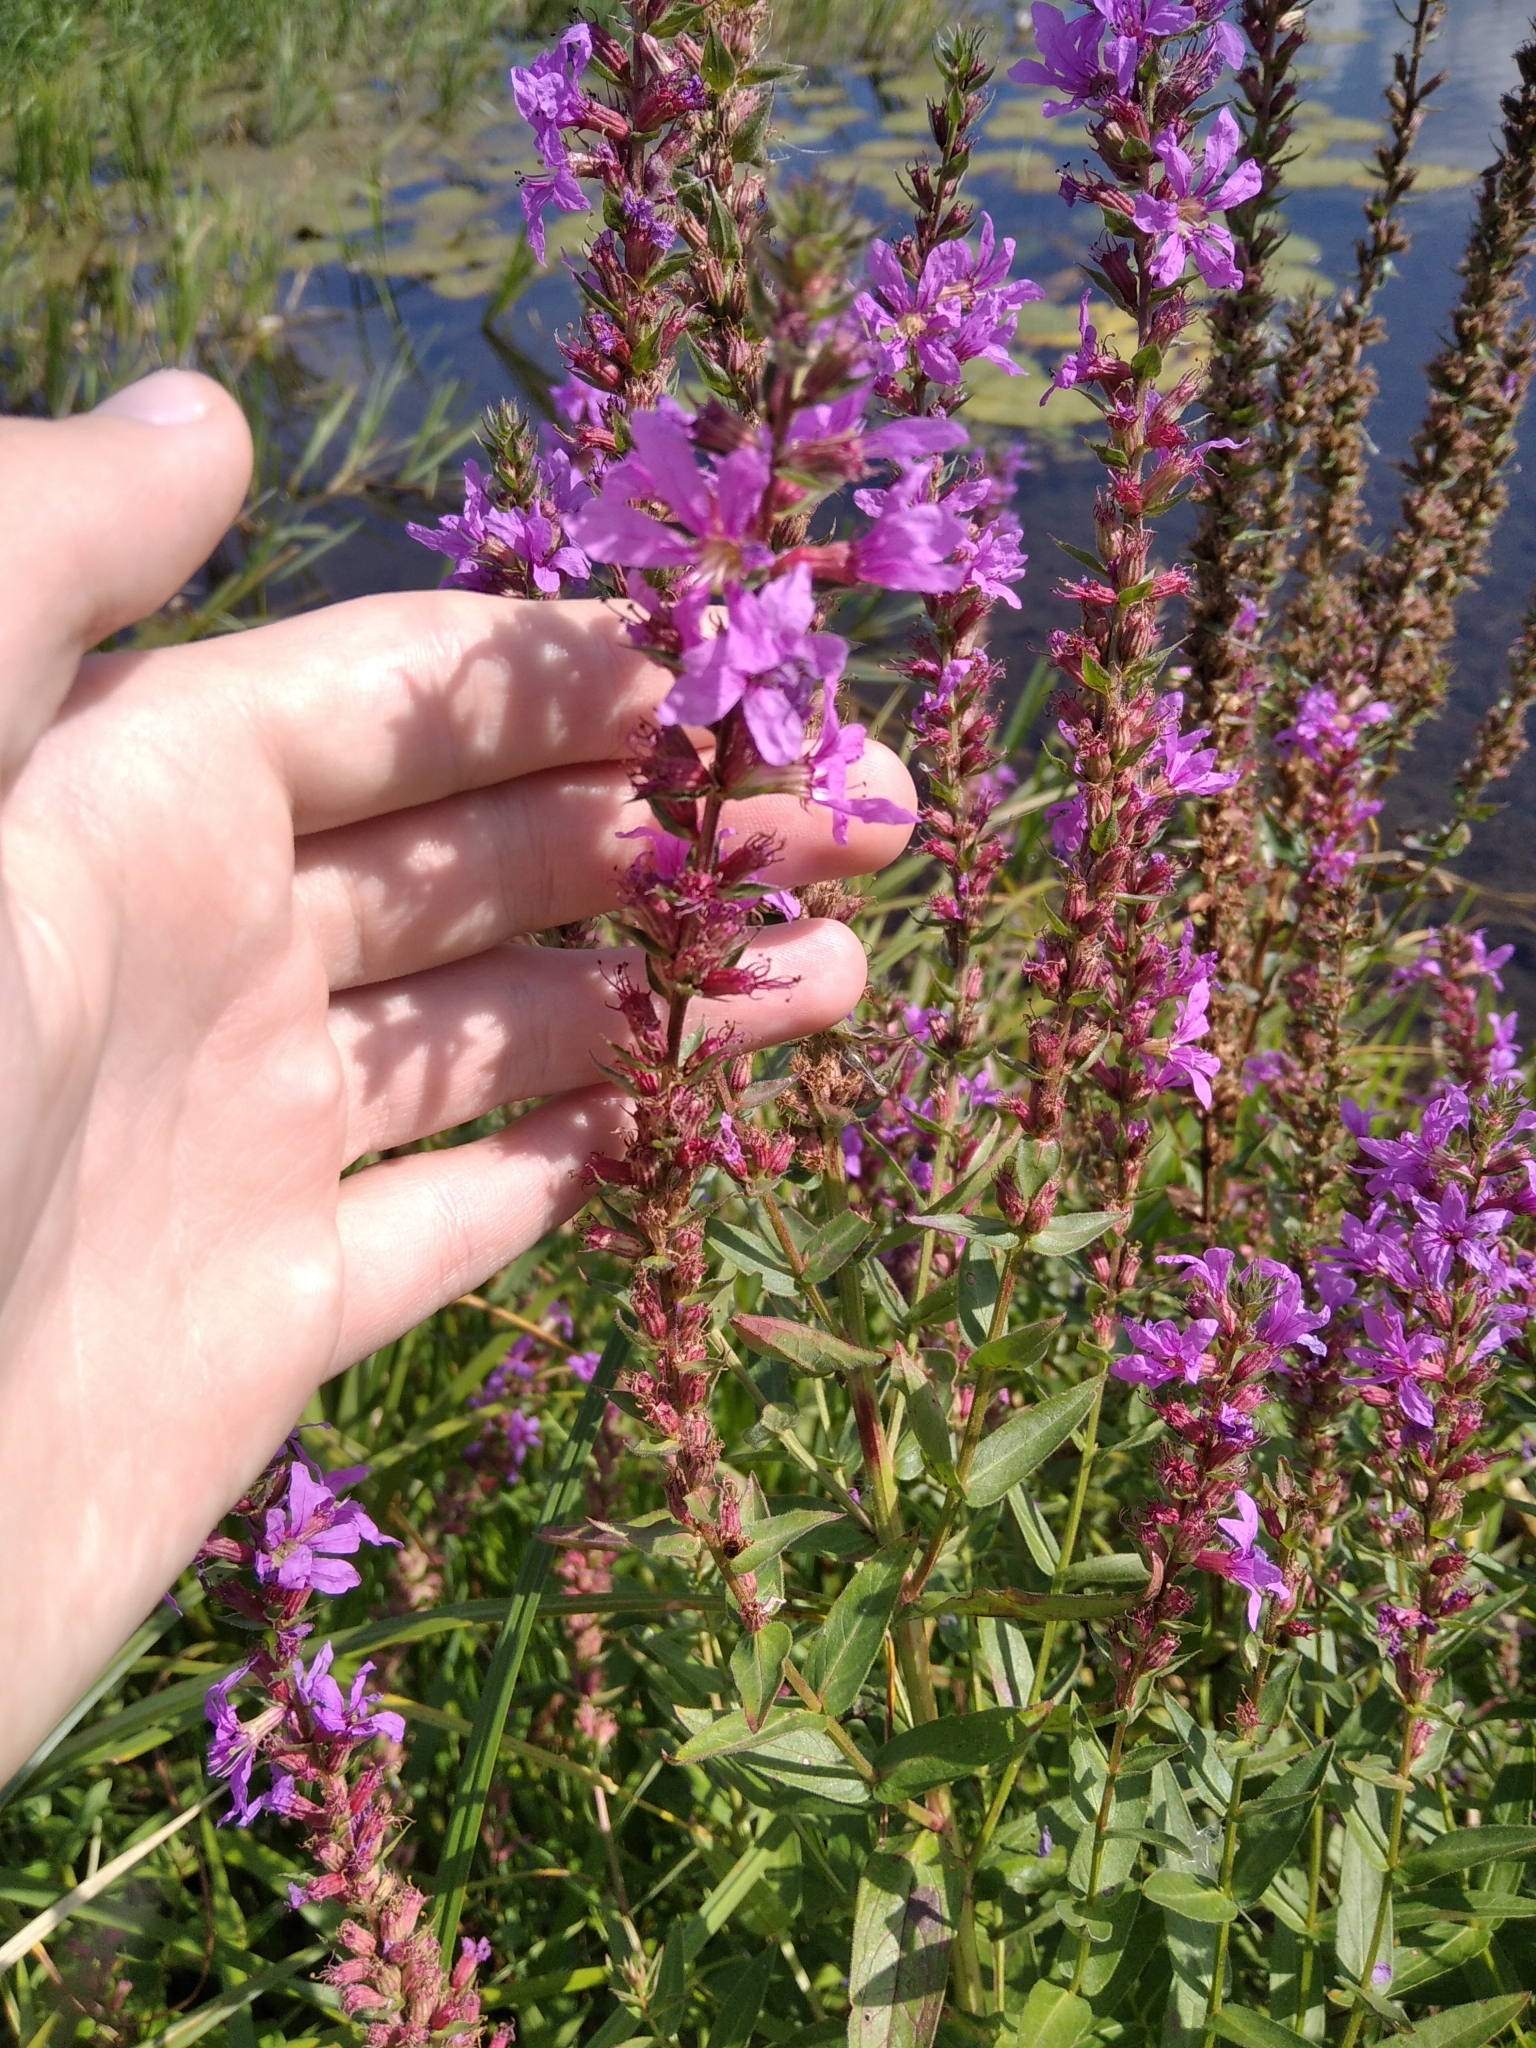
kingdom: Plantae
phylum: Tracheophyta
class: Magnoliopsida
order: Myrtales
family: Lythraceae
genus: Lythrum
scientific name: Lythrum salicaria
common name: Purple loosestrife
